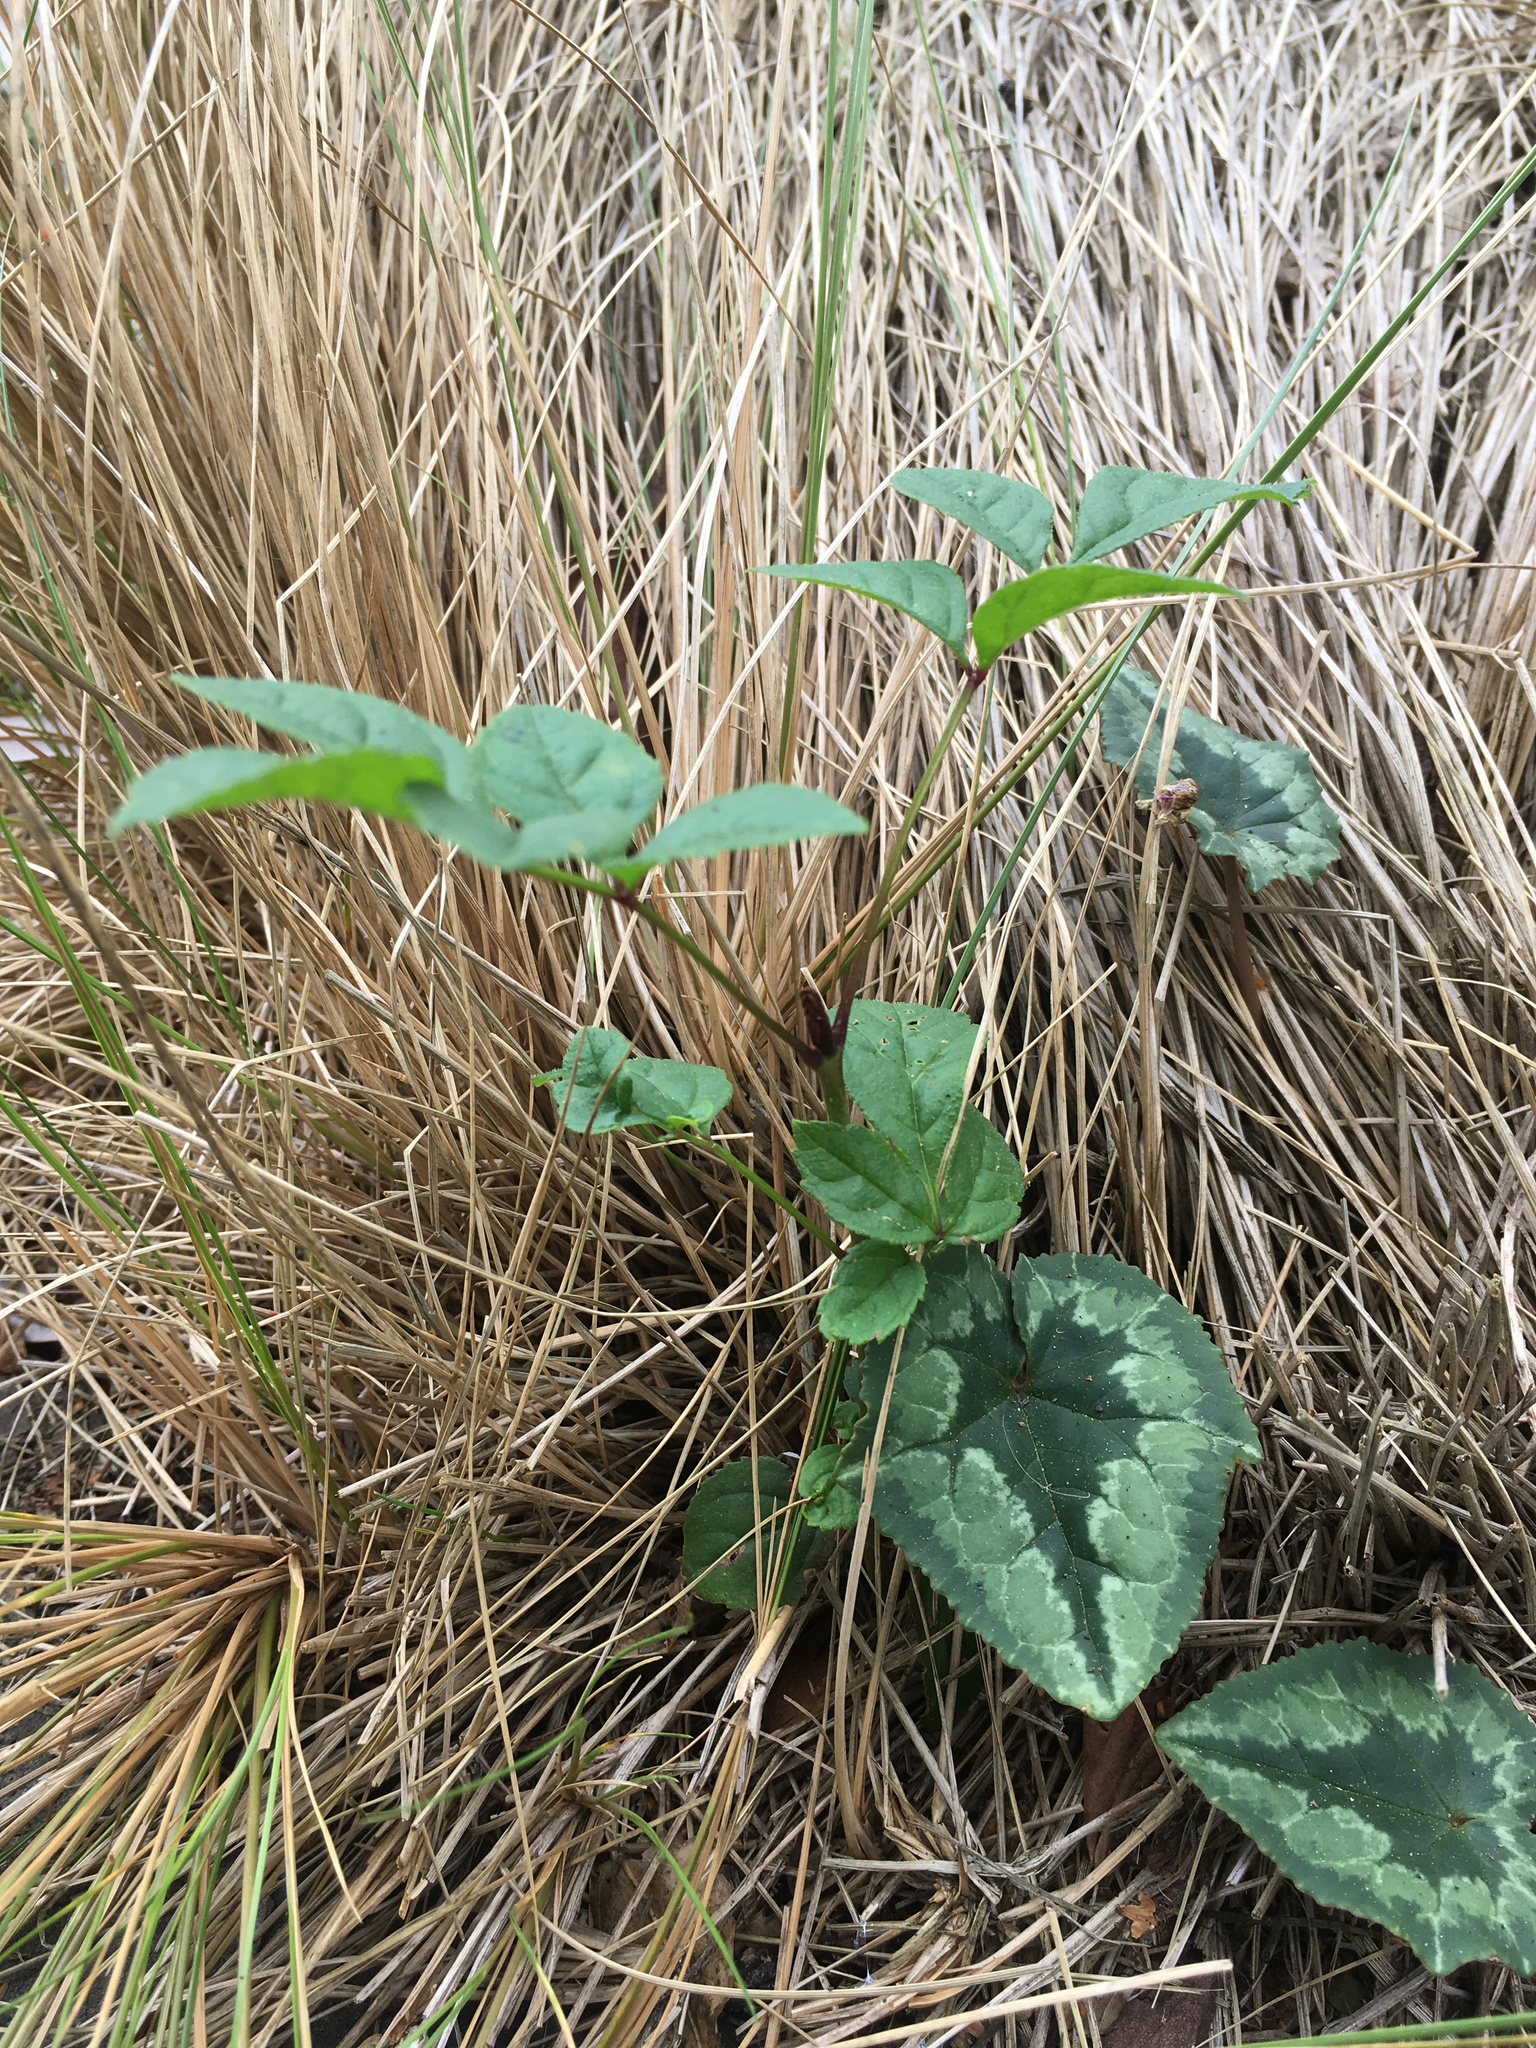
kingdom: Plantae
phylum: Tracheophyta
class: Magnoliopsida
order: Lamiales
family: Oleaceae
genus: Fraxinus
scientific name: Fraxinus excelsior
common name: European ash
